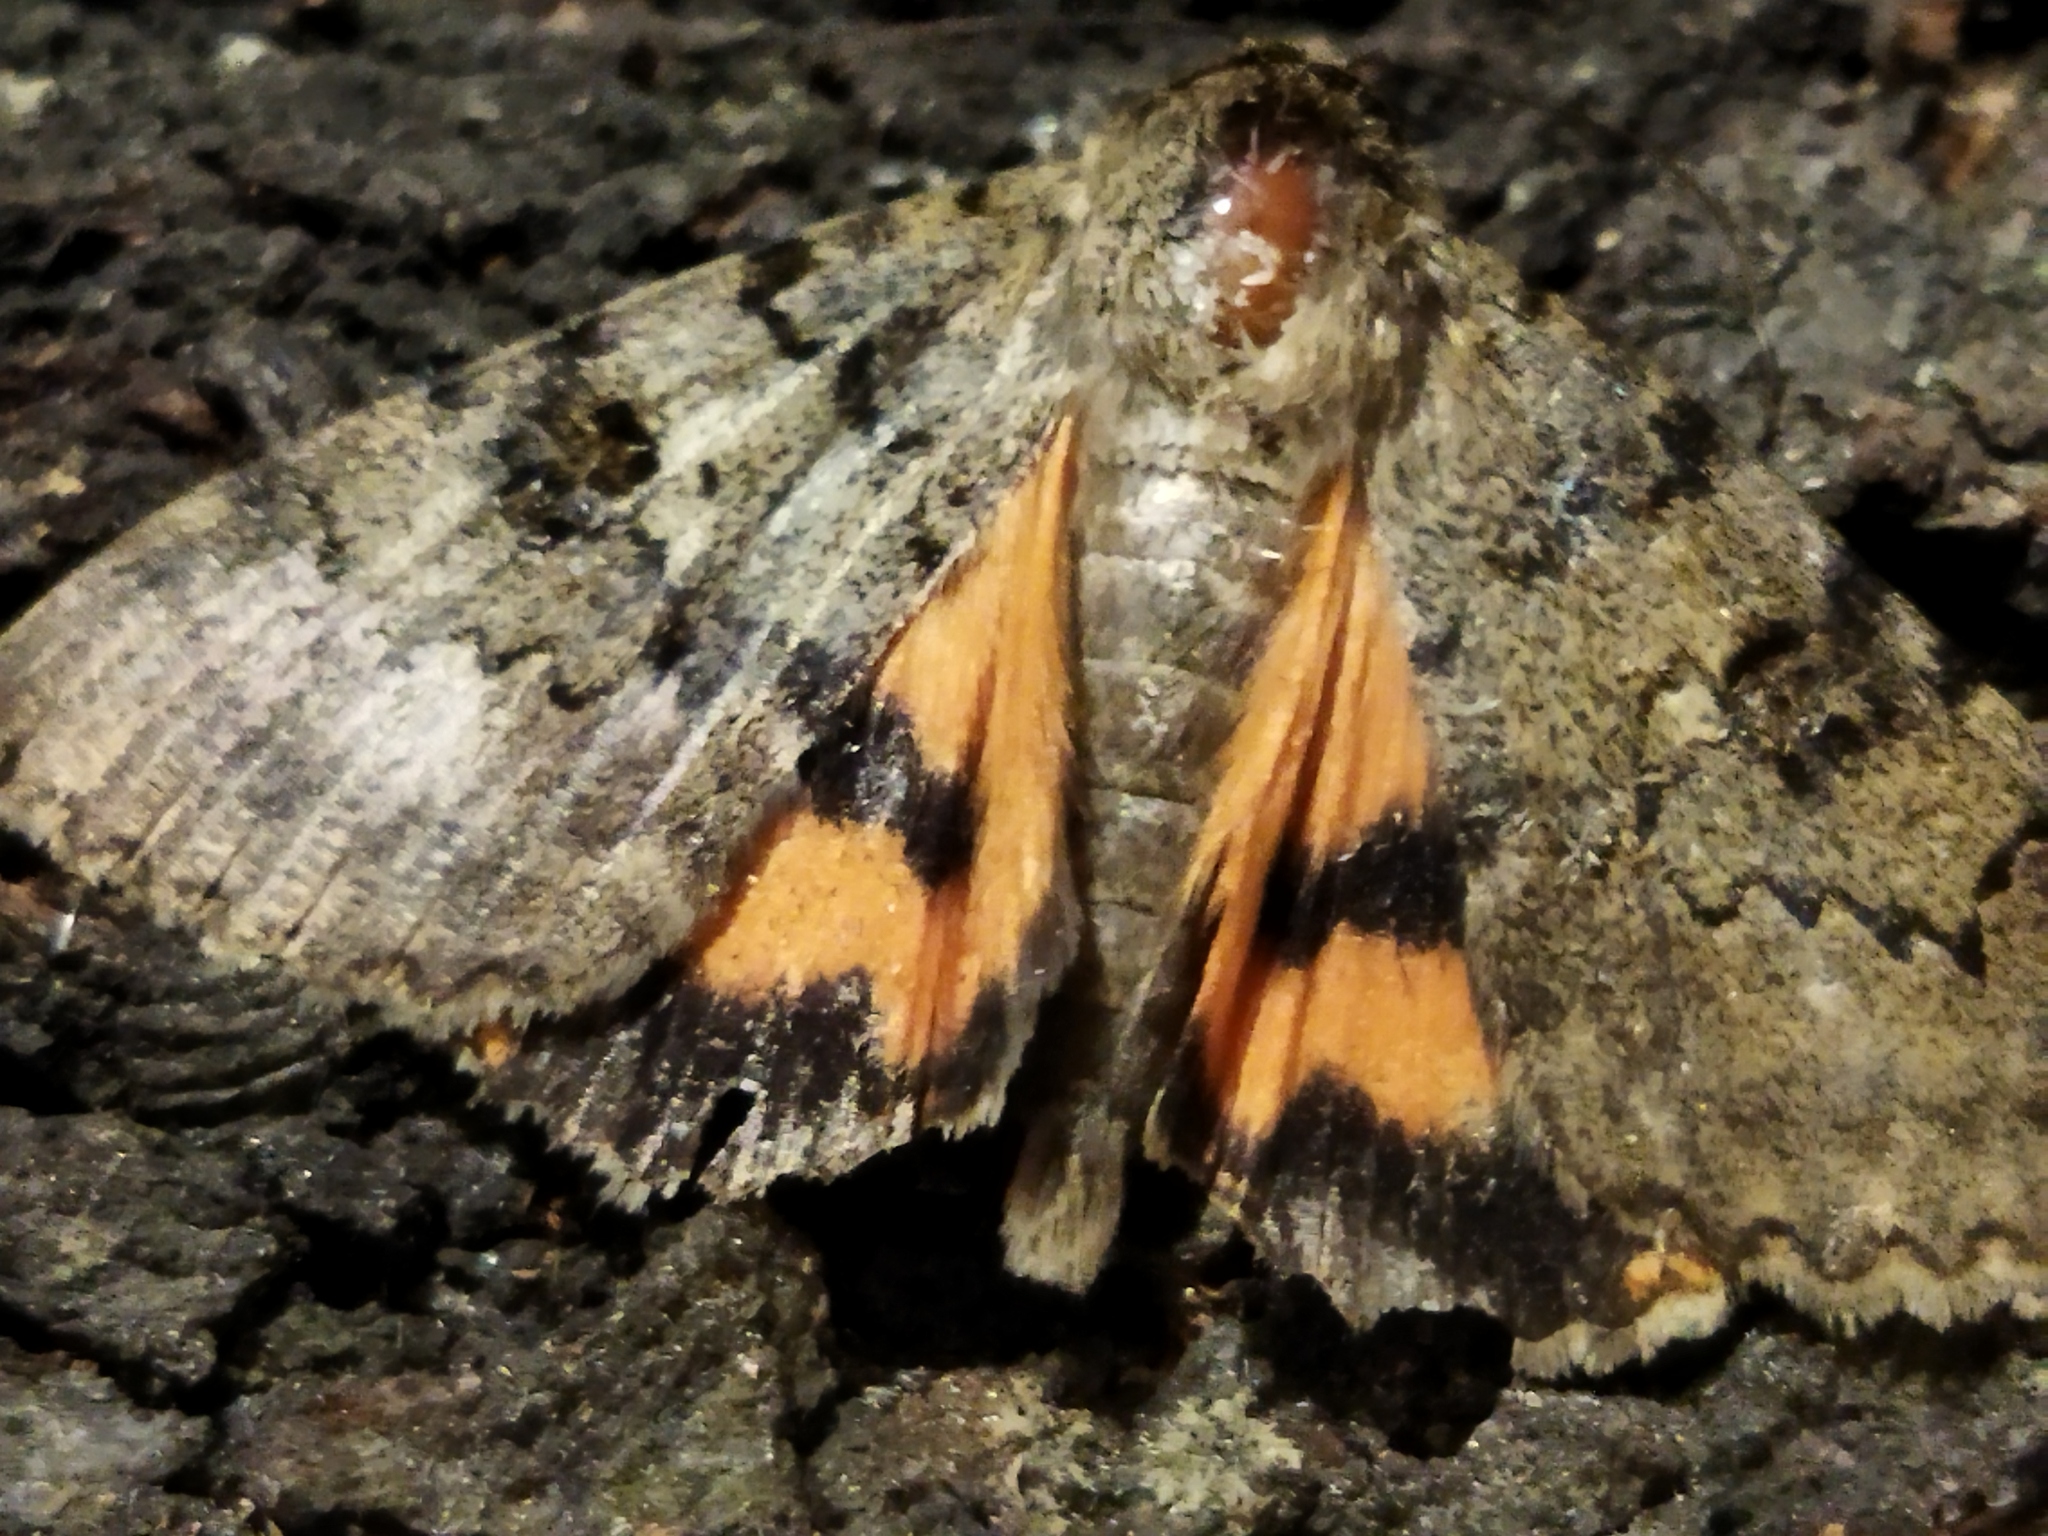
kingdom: Animalia
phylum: Arthropoda
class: Insecta
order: Lepidoptera
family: Erebidae
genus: Catocala
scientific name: Catocala puerpera
